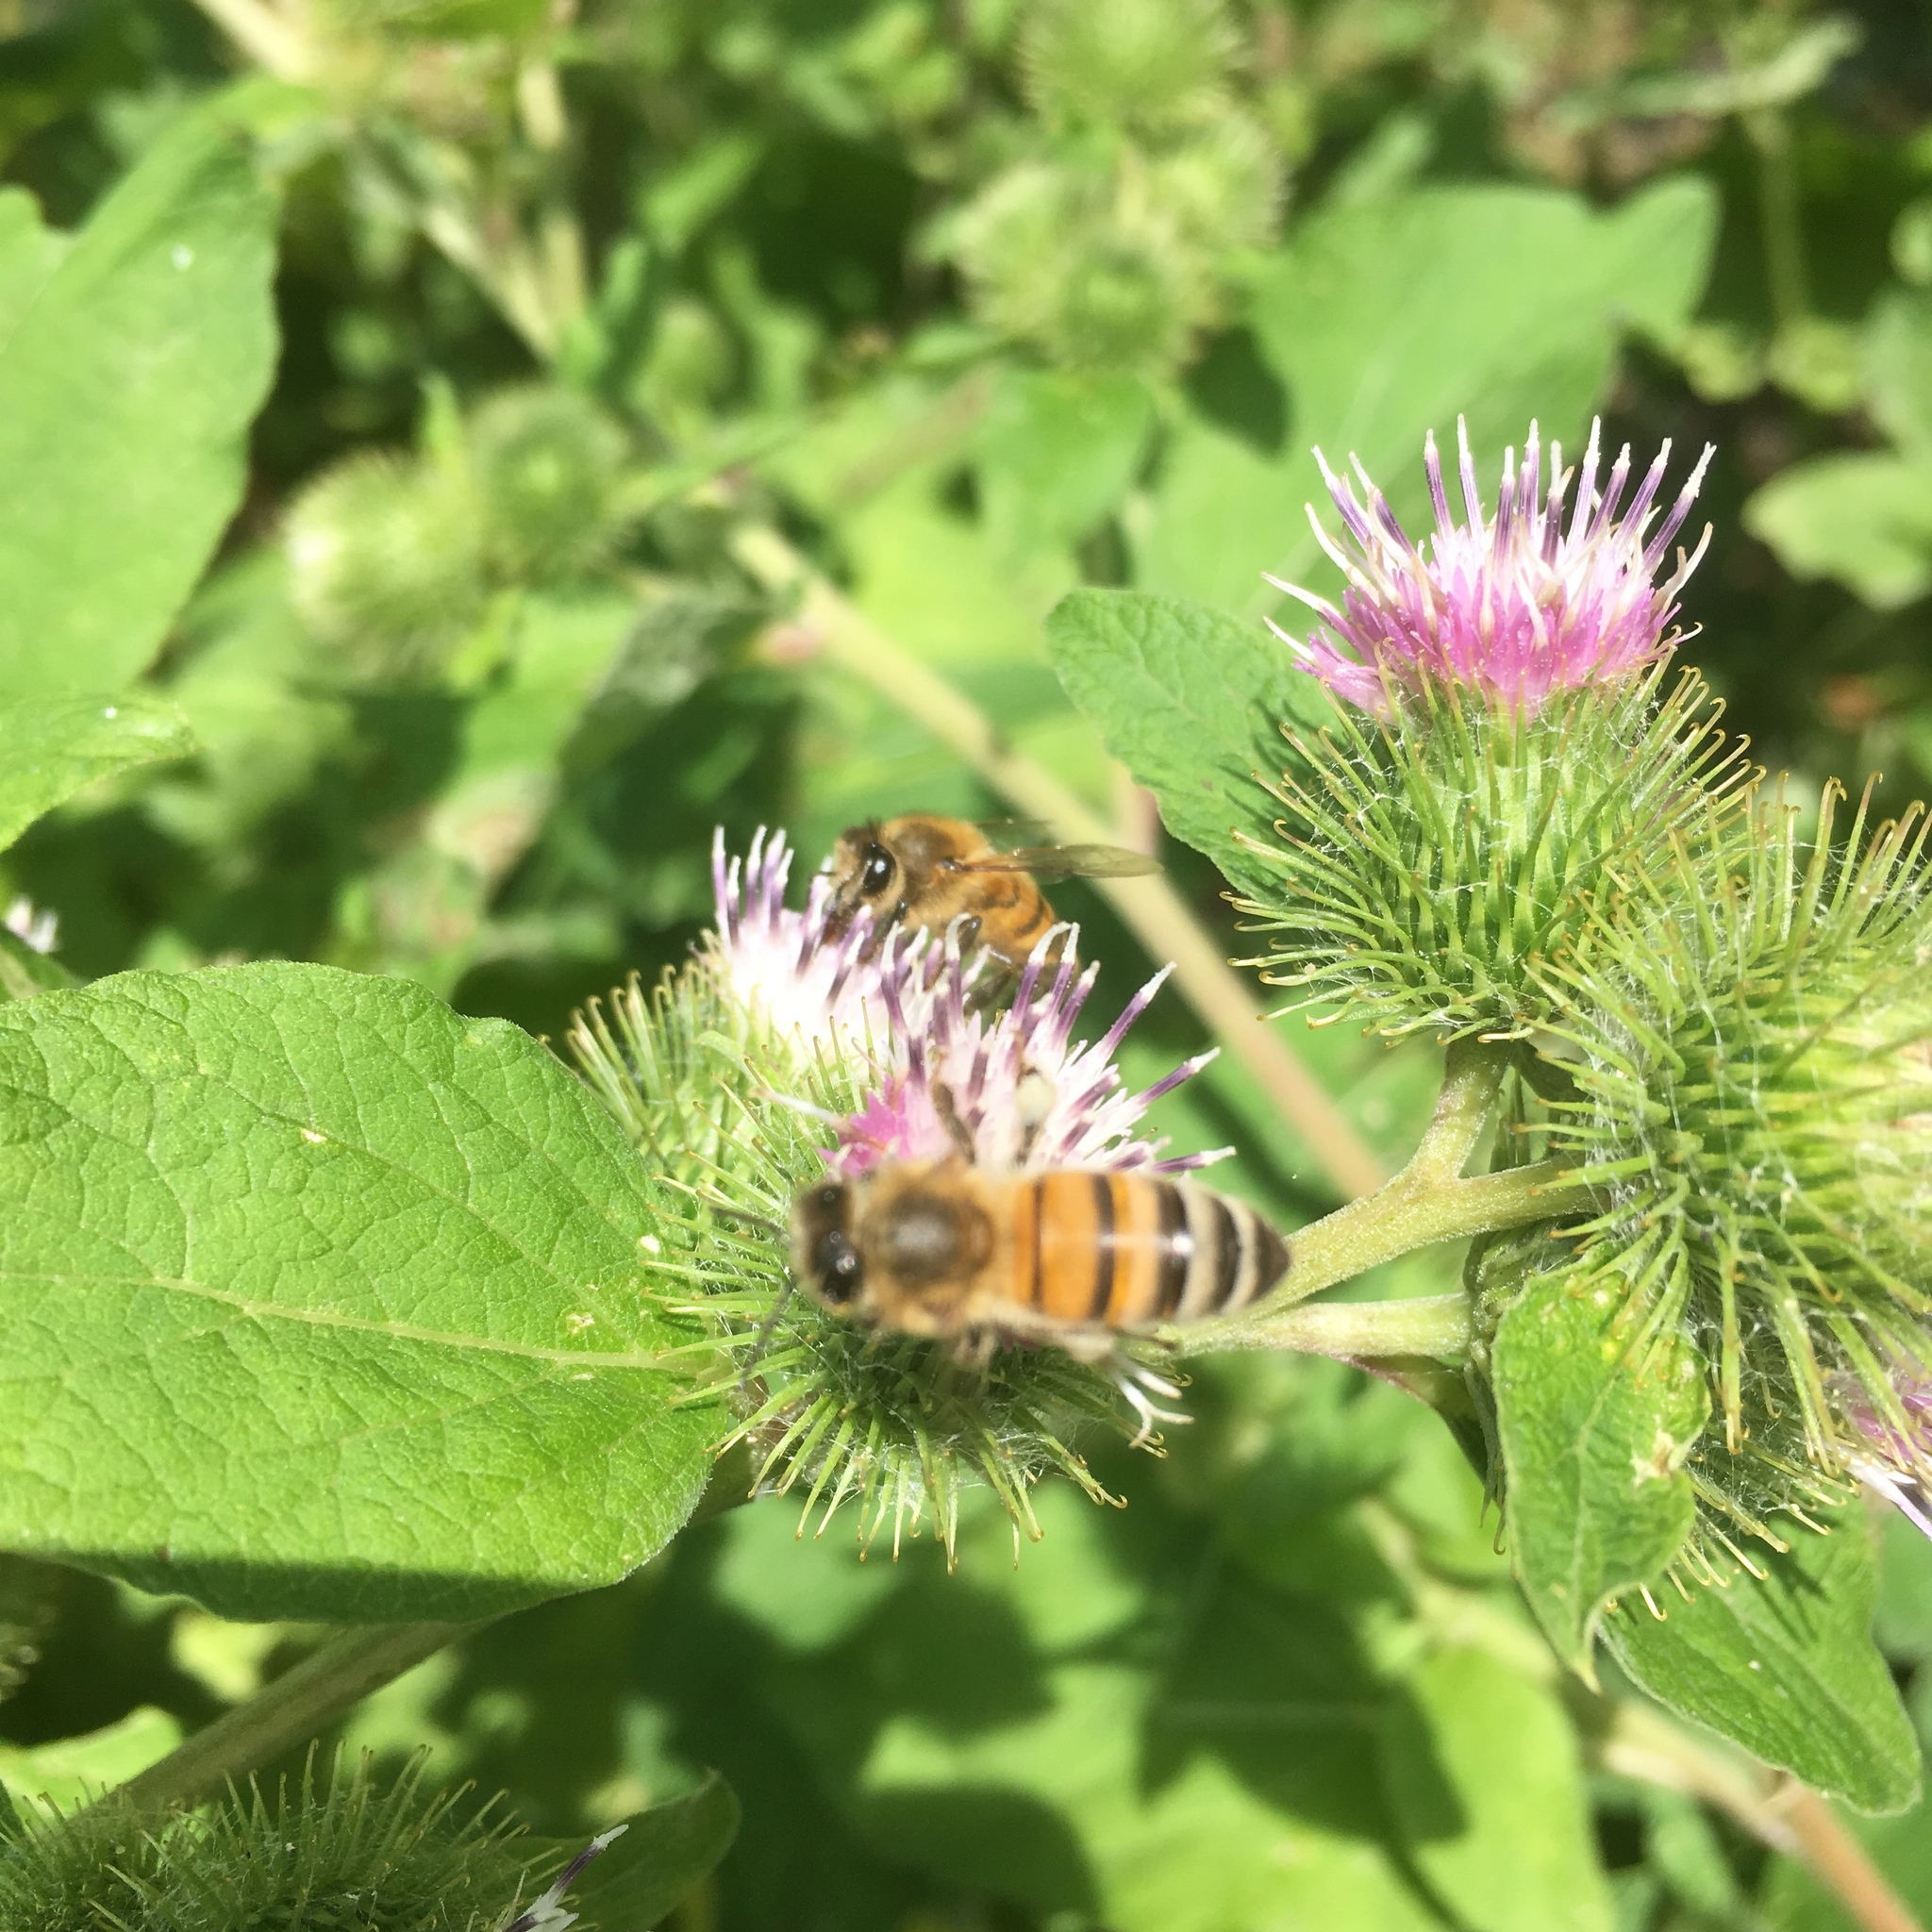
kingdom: Animalia
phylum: Arthropoda
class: Insecta
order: Hymenoptera
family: Apidae
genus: Apis
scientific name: Apis mellifera
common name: Honey bee
